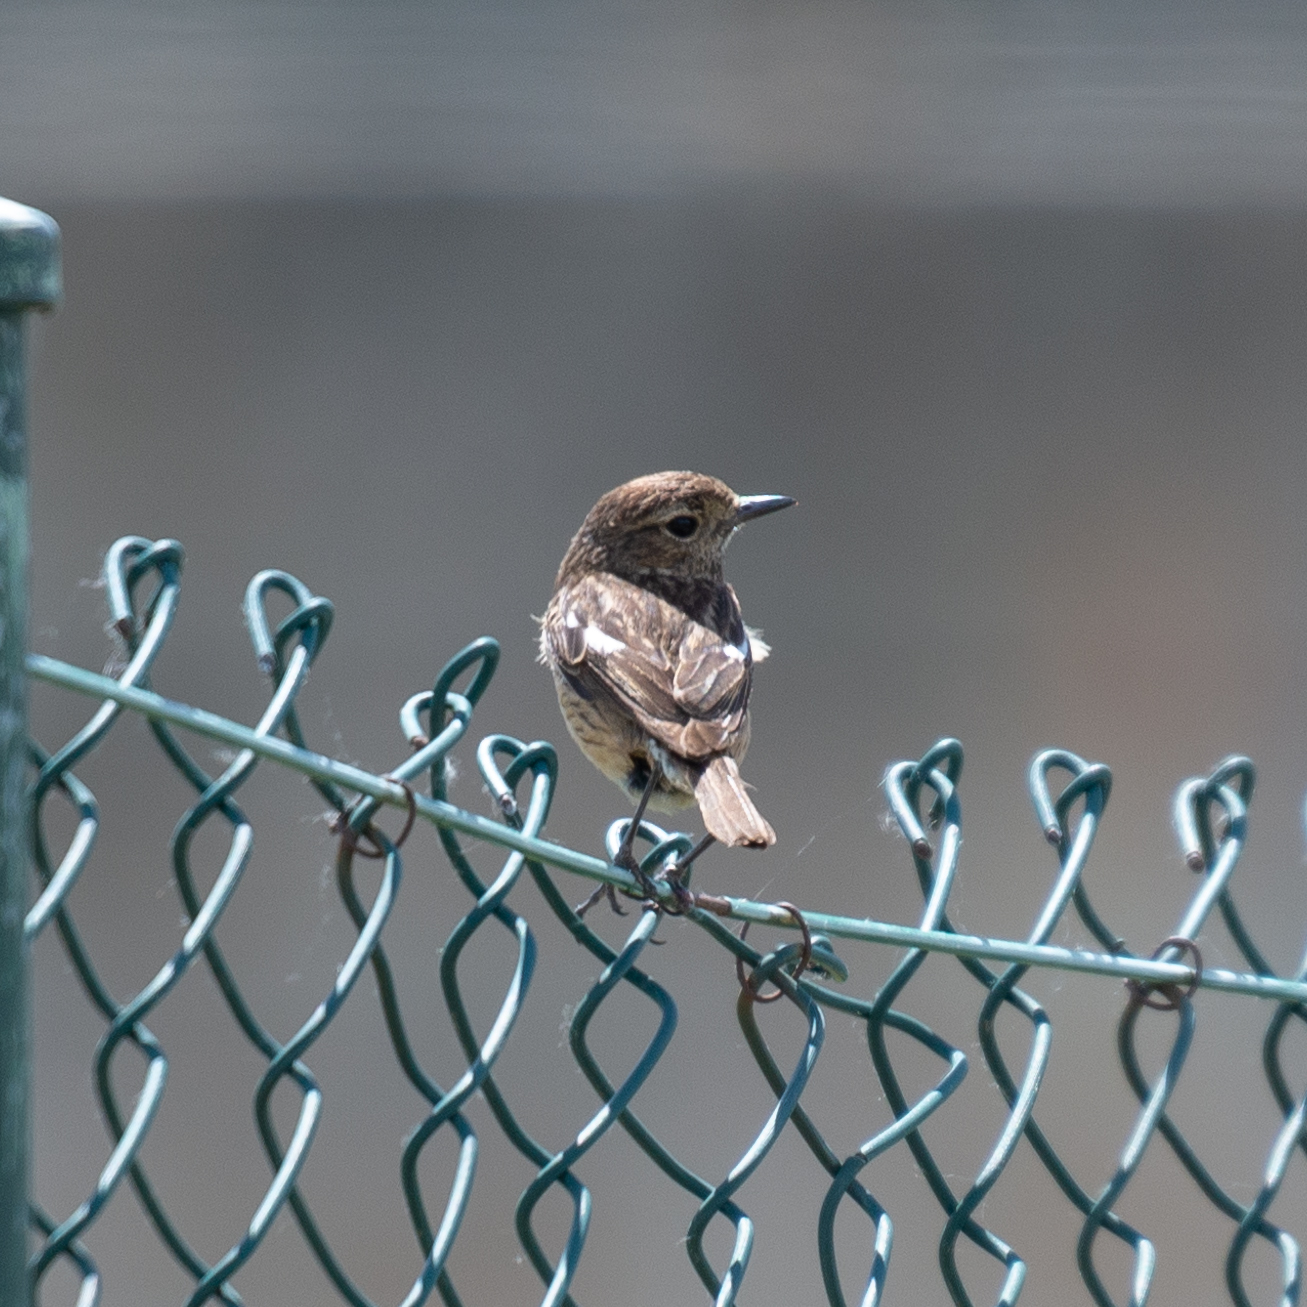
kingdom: Animalia
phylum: Chordata
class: Aves
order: Passeriformes
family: Muscicapidae
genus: Saxicola
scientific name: Saxicola rubicola
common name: European stonechat
